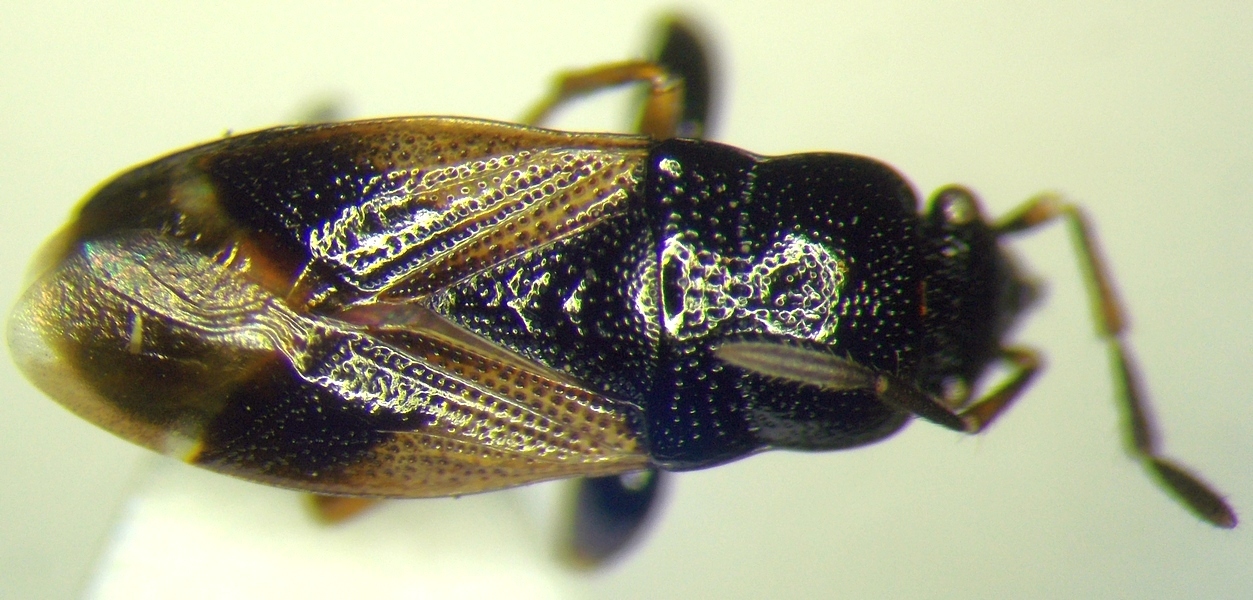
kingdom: Animalia
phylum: Arthropoda
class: Insecta
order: Hemiptera
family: Rhyparochromidae
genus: Megalonotus
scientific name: Megalonotus praetextatus
